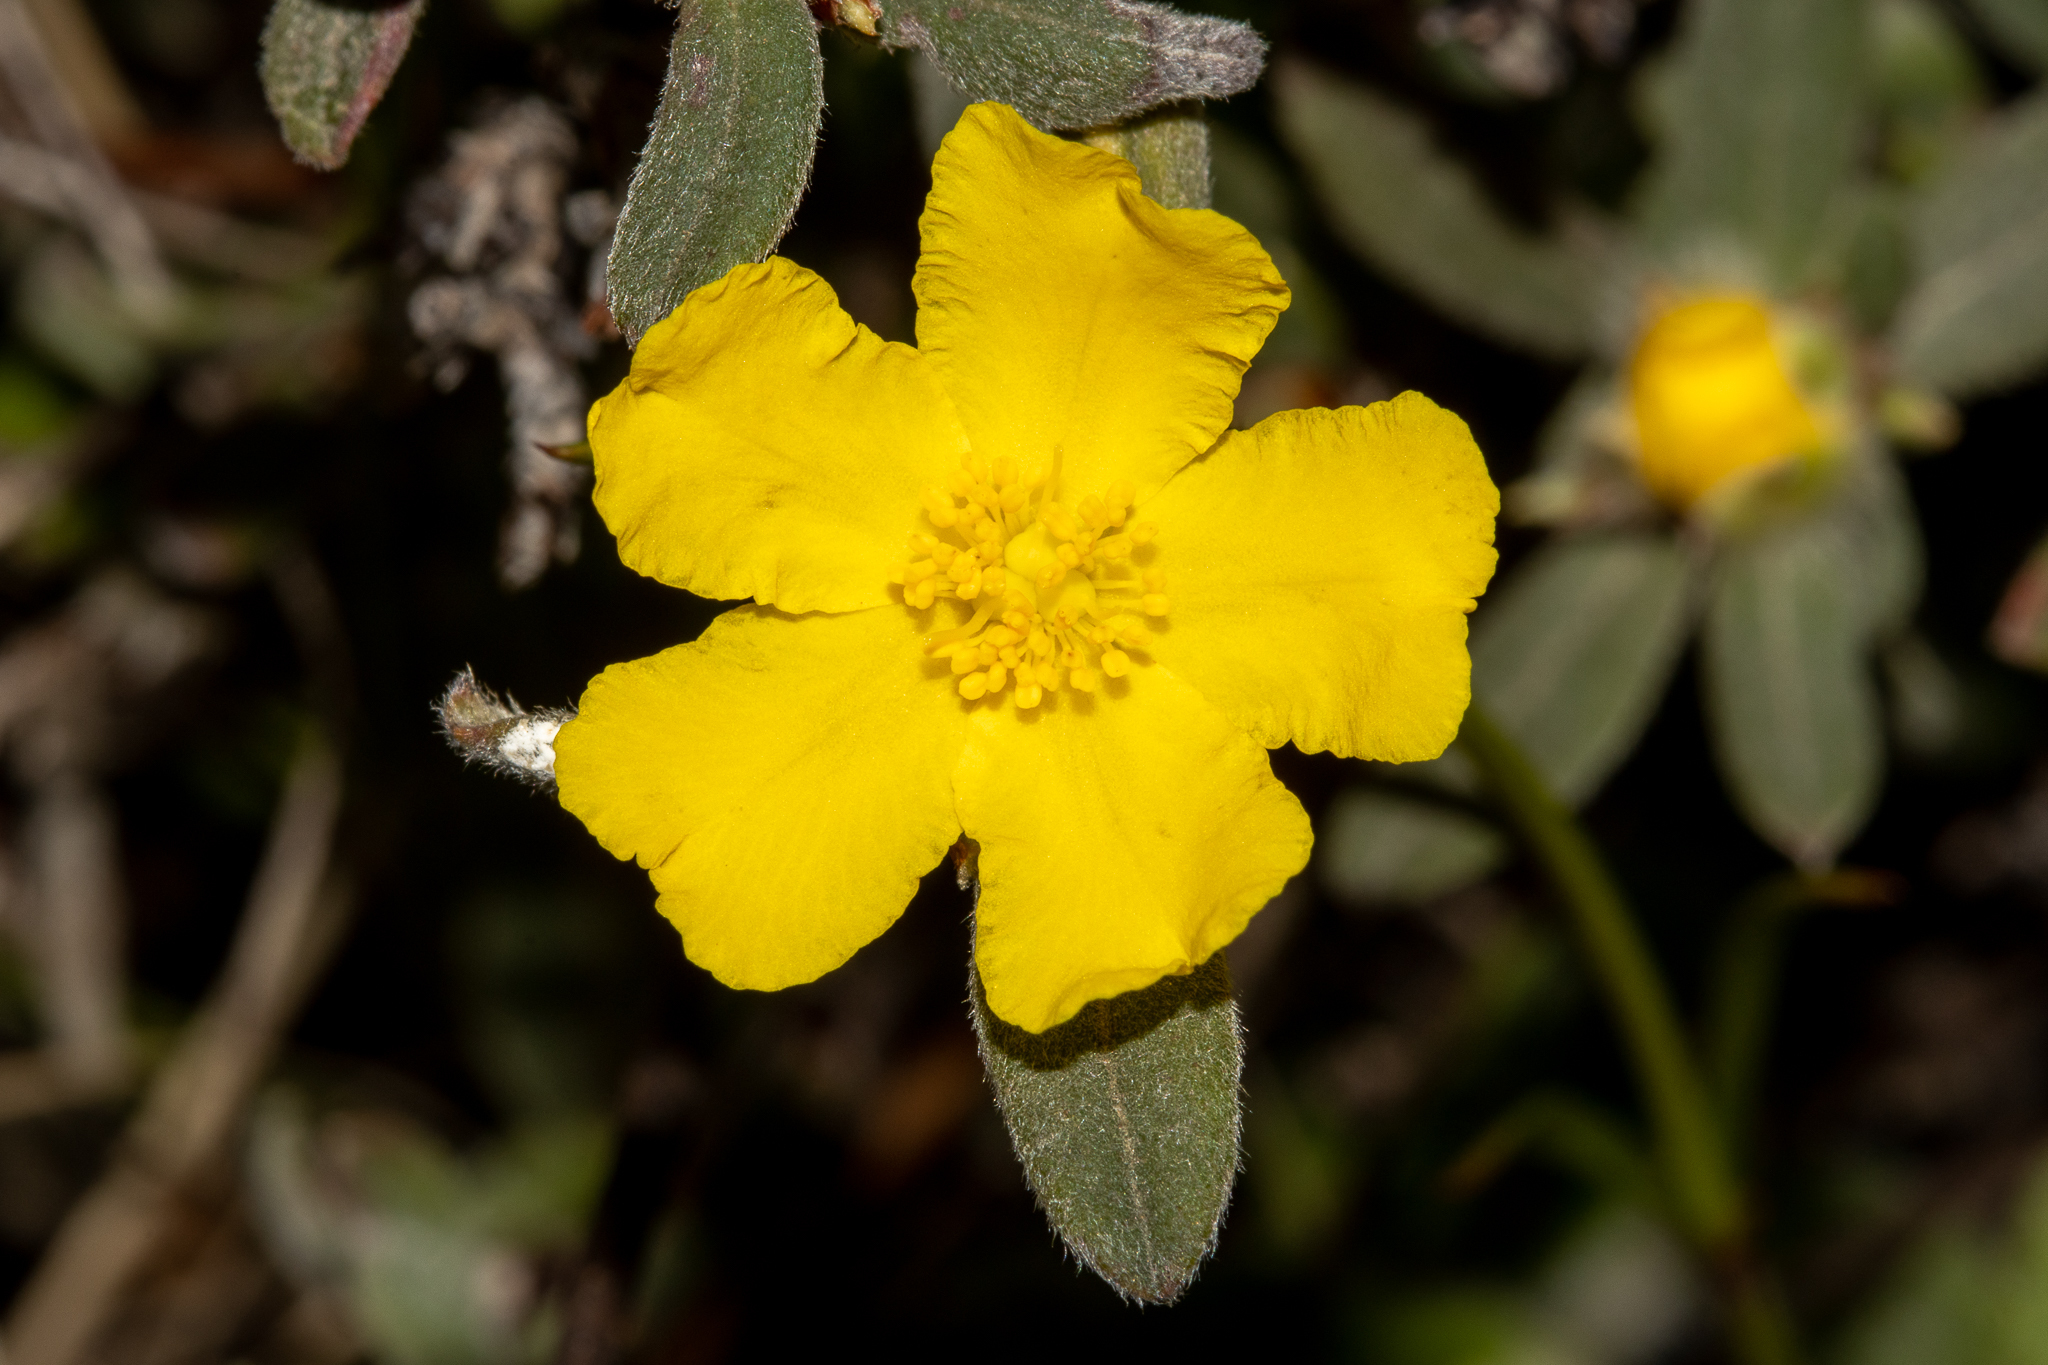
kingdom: Plantae
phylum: Tracheophyta
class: Magnoliopsida
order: Dilleniales
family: Dilleniaceae
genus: Hibbertia
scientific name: Hibbertia commutata
